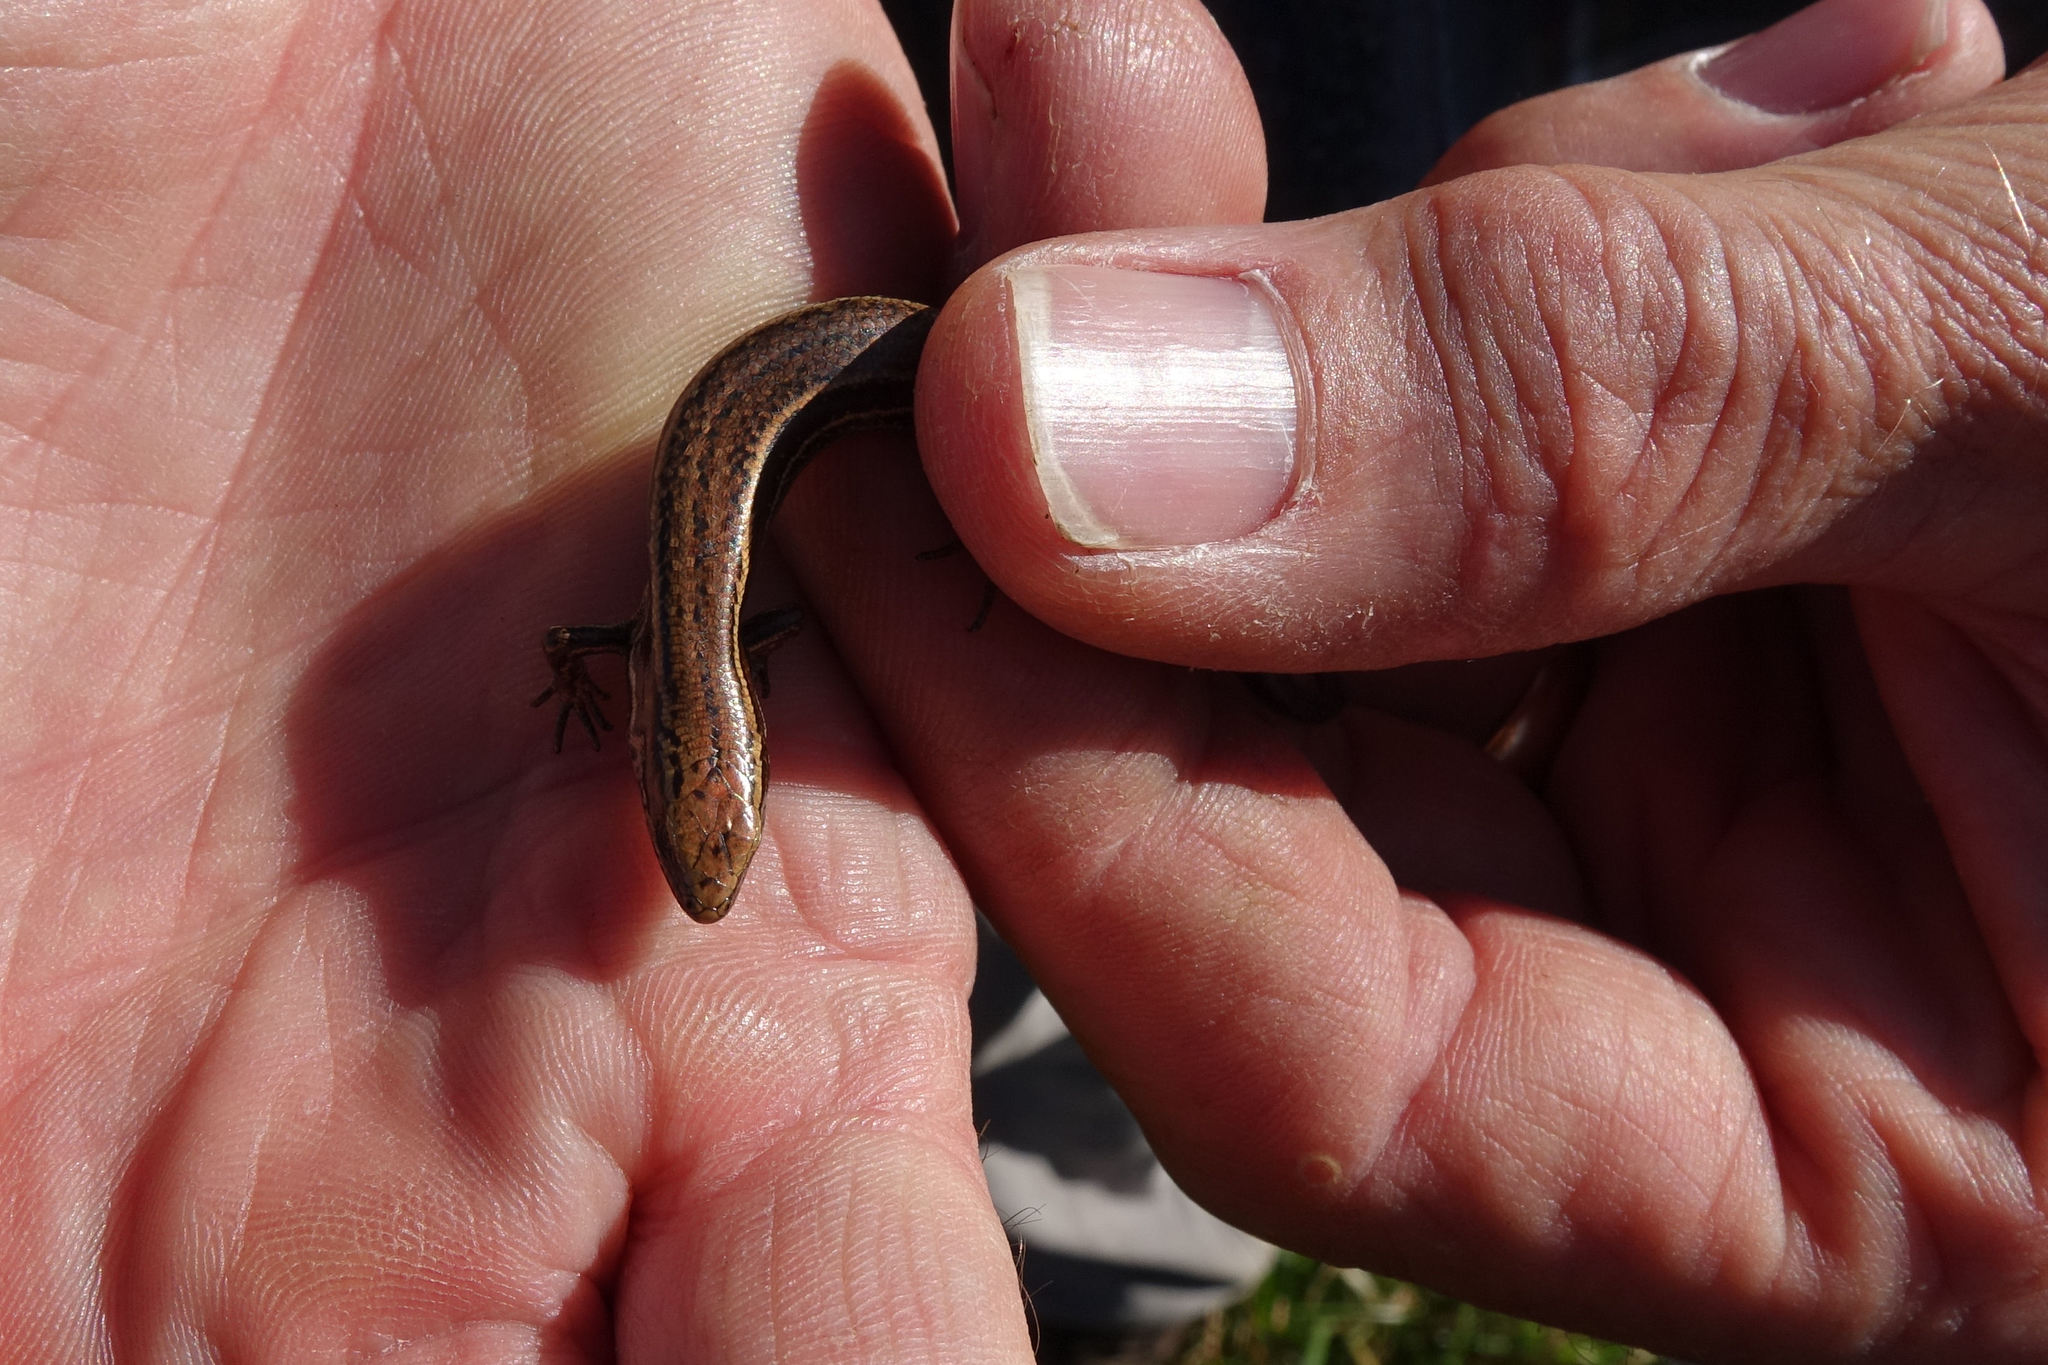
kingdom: Animalia
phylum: Chordata
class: Squamata
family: Scincidae
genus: Oligosoma
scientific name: Oligosoma inconspicuum
